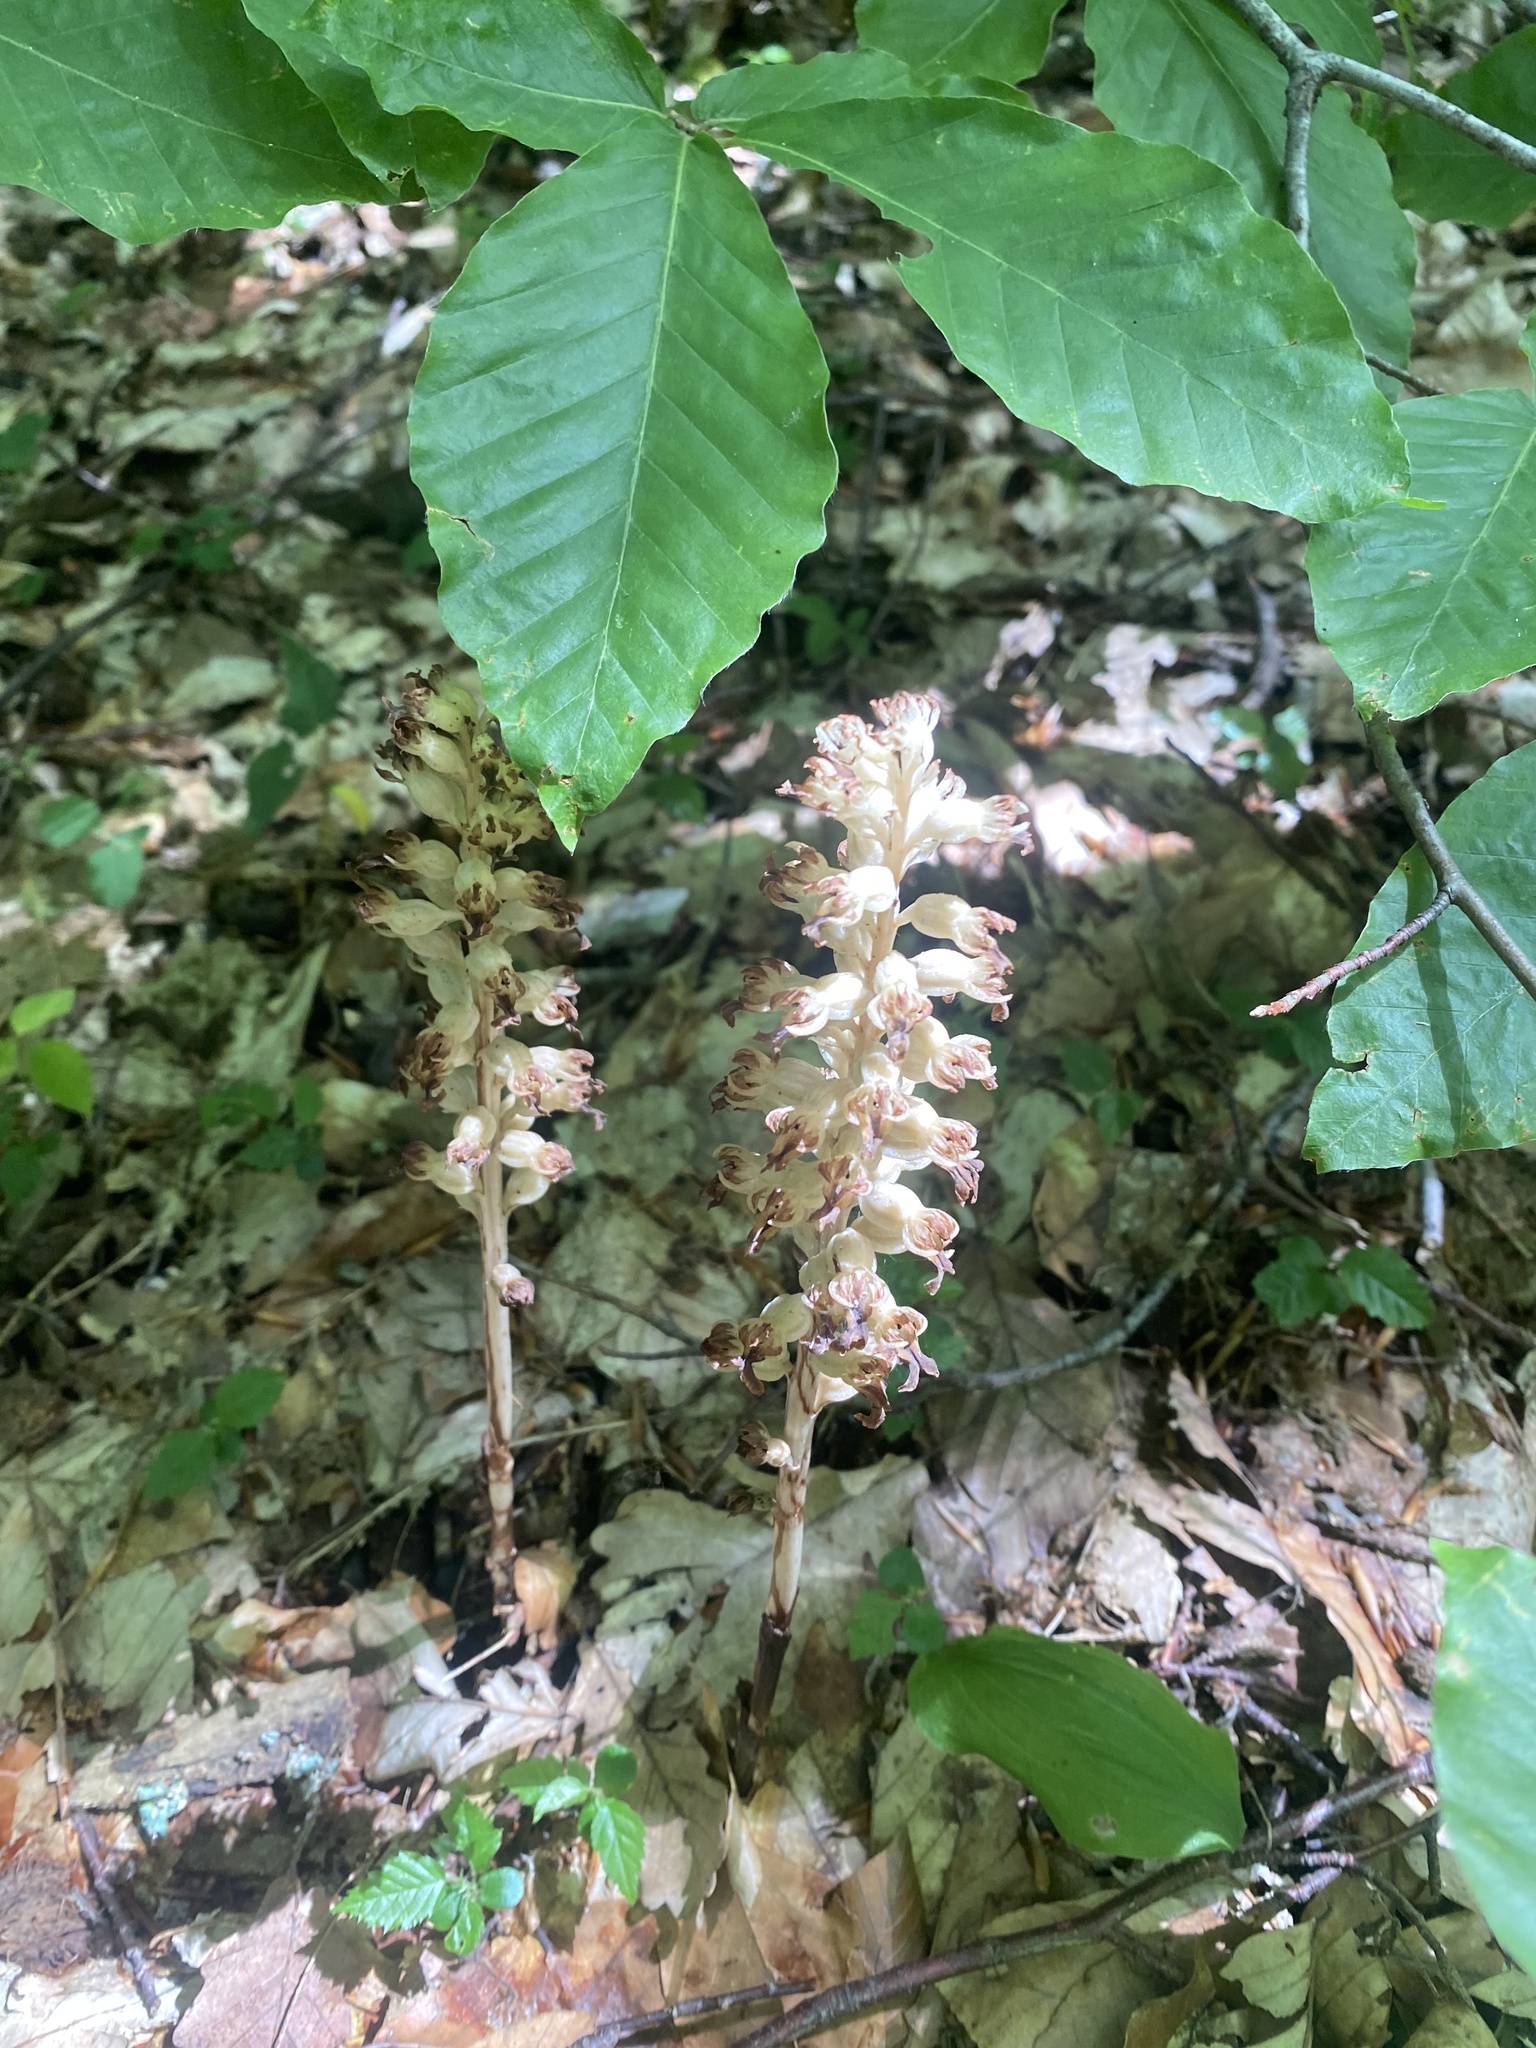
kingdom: Plantae
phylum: Tracheophyta
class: Liliopsida
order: Asparagales
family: Orchidaceae
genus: Neottia
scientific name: Neottia nidus-avis
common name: Bird's-nest orchid
